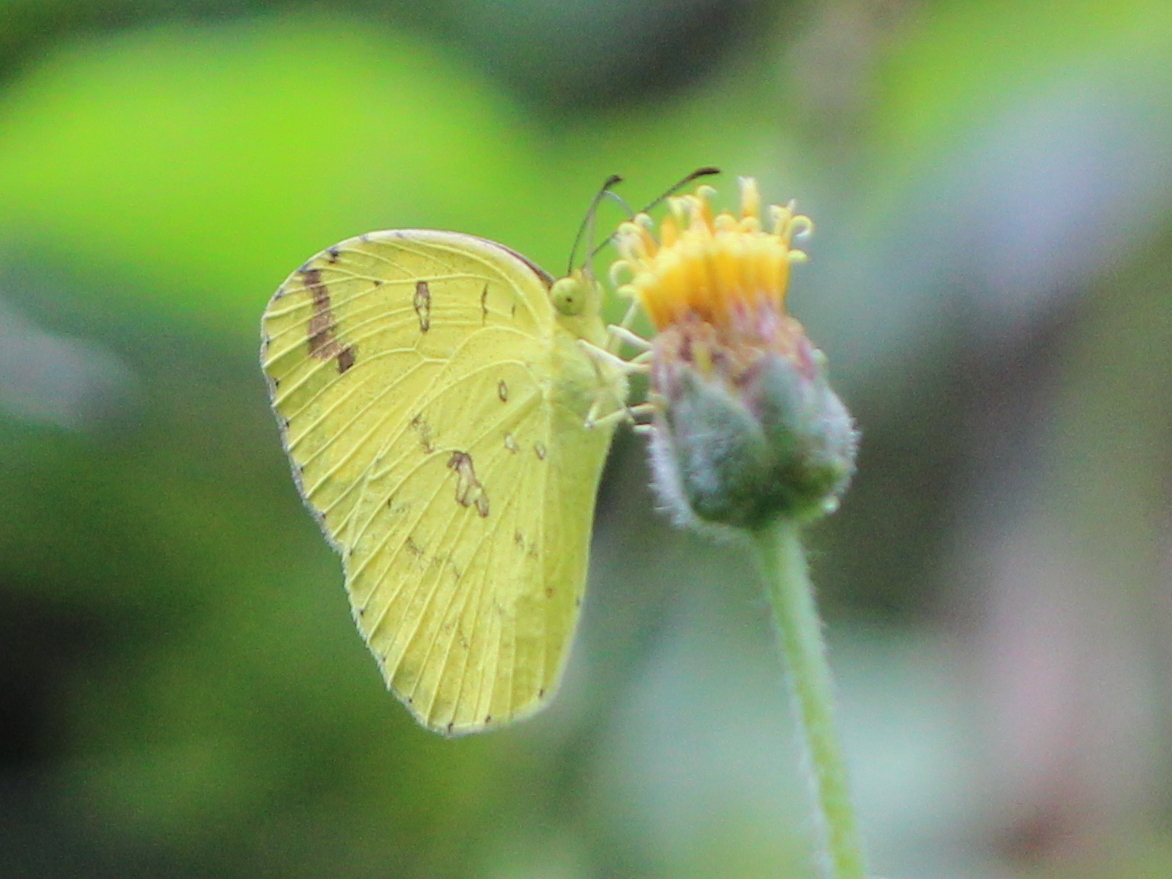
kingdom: Animalia
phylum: Arthropoda
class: Insecta
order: Lepidoptera
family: Pieridae
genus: Eurema
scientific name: Eurema hecabe
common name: Pale grass yellow
